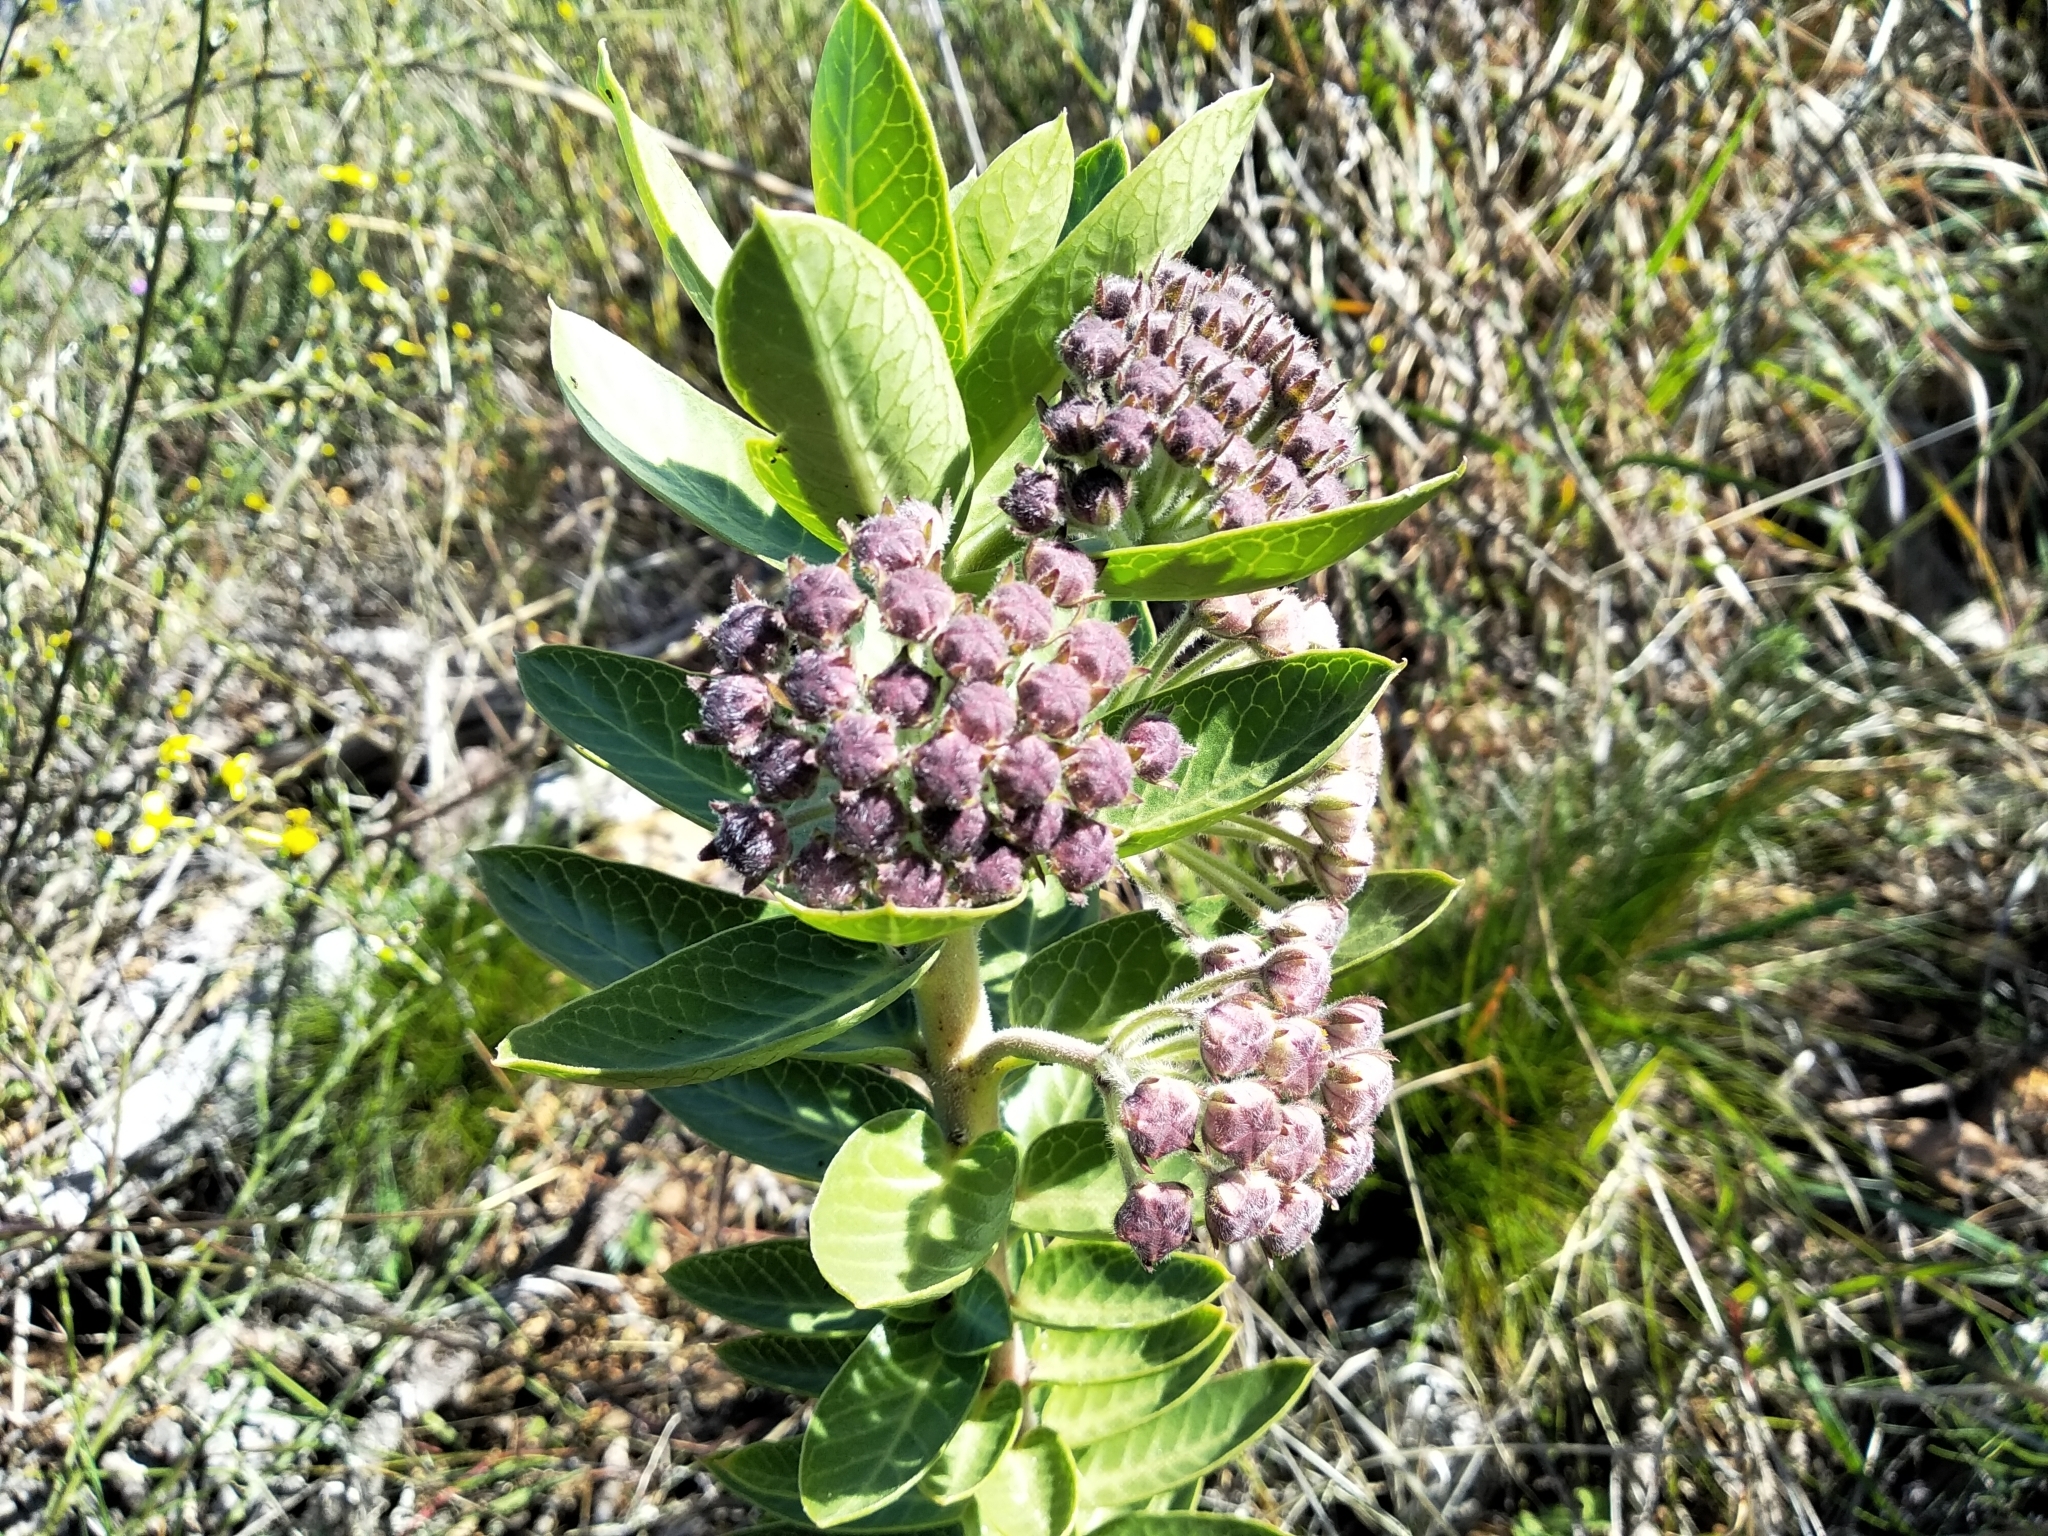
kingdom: Plantae
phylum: Tracheophyta
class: Magnoliopsida
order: Gentianales
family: Apocynaceae
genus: Gomphocarpus
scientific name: Gomphocarpus cancellatus
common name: Wild cotton
